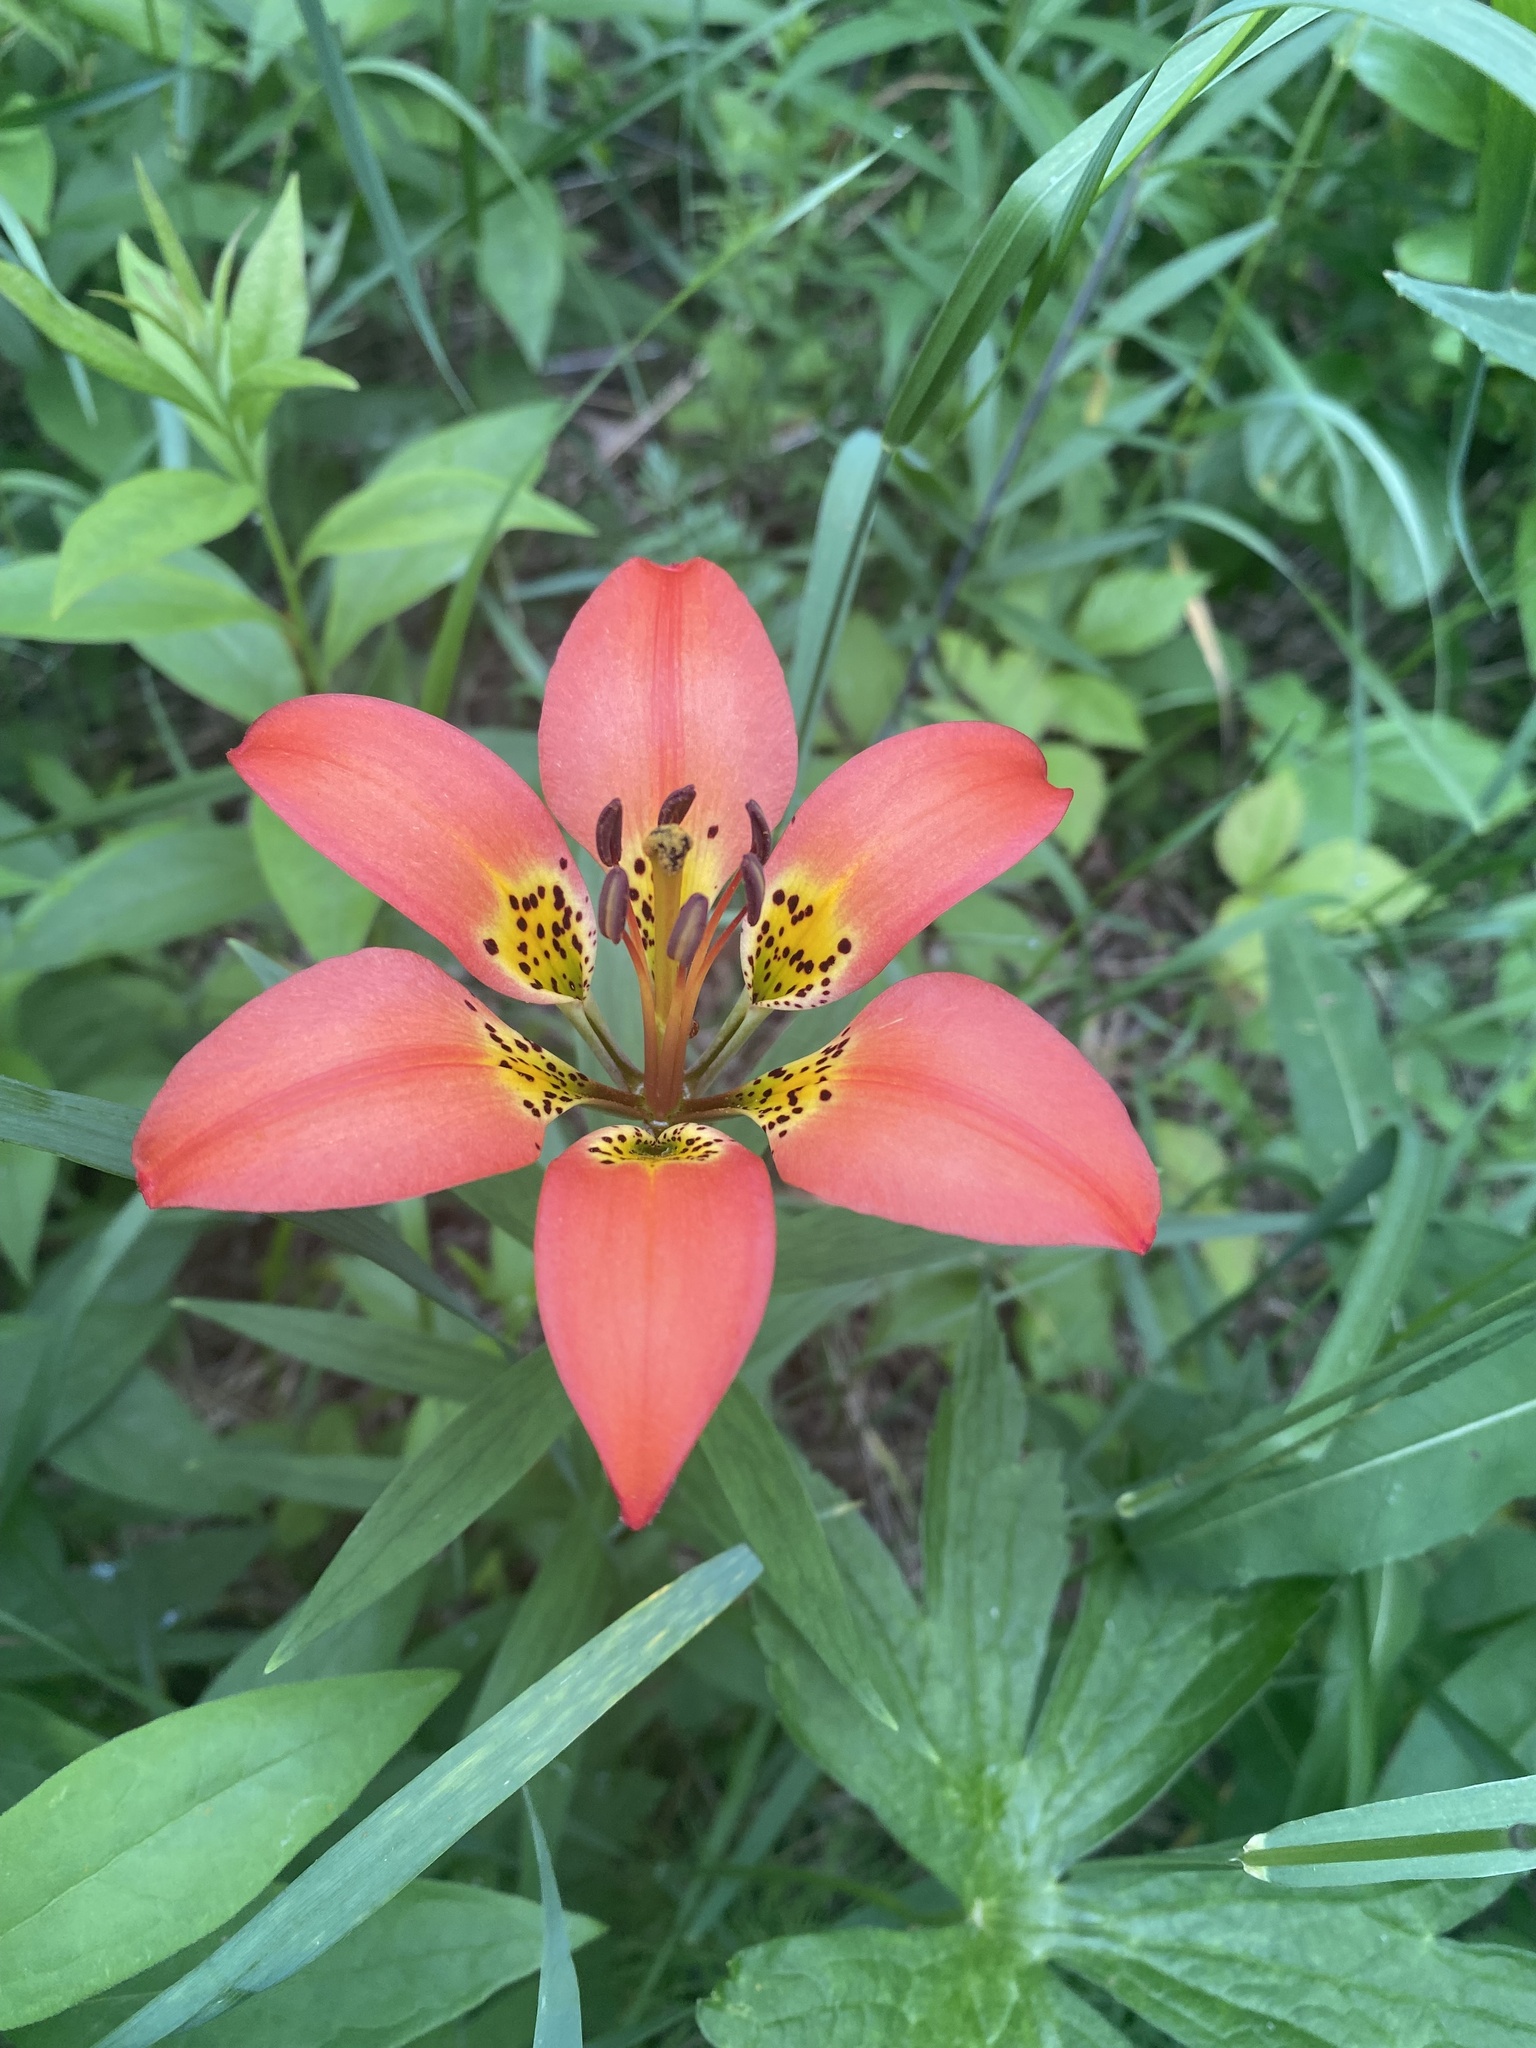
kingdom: Plantae
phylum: Tracheophyta
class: Liliopsida
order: Liliales
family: Liliaceae
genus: Lilium
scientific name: Lilium philadelphicum
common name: Red lily
